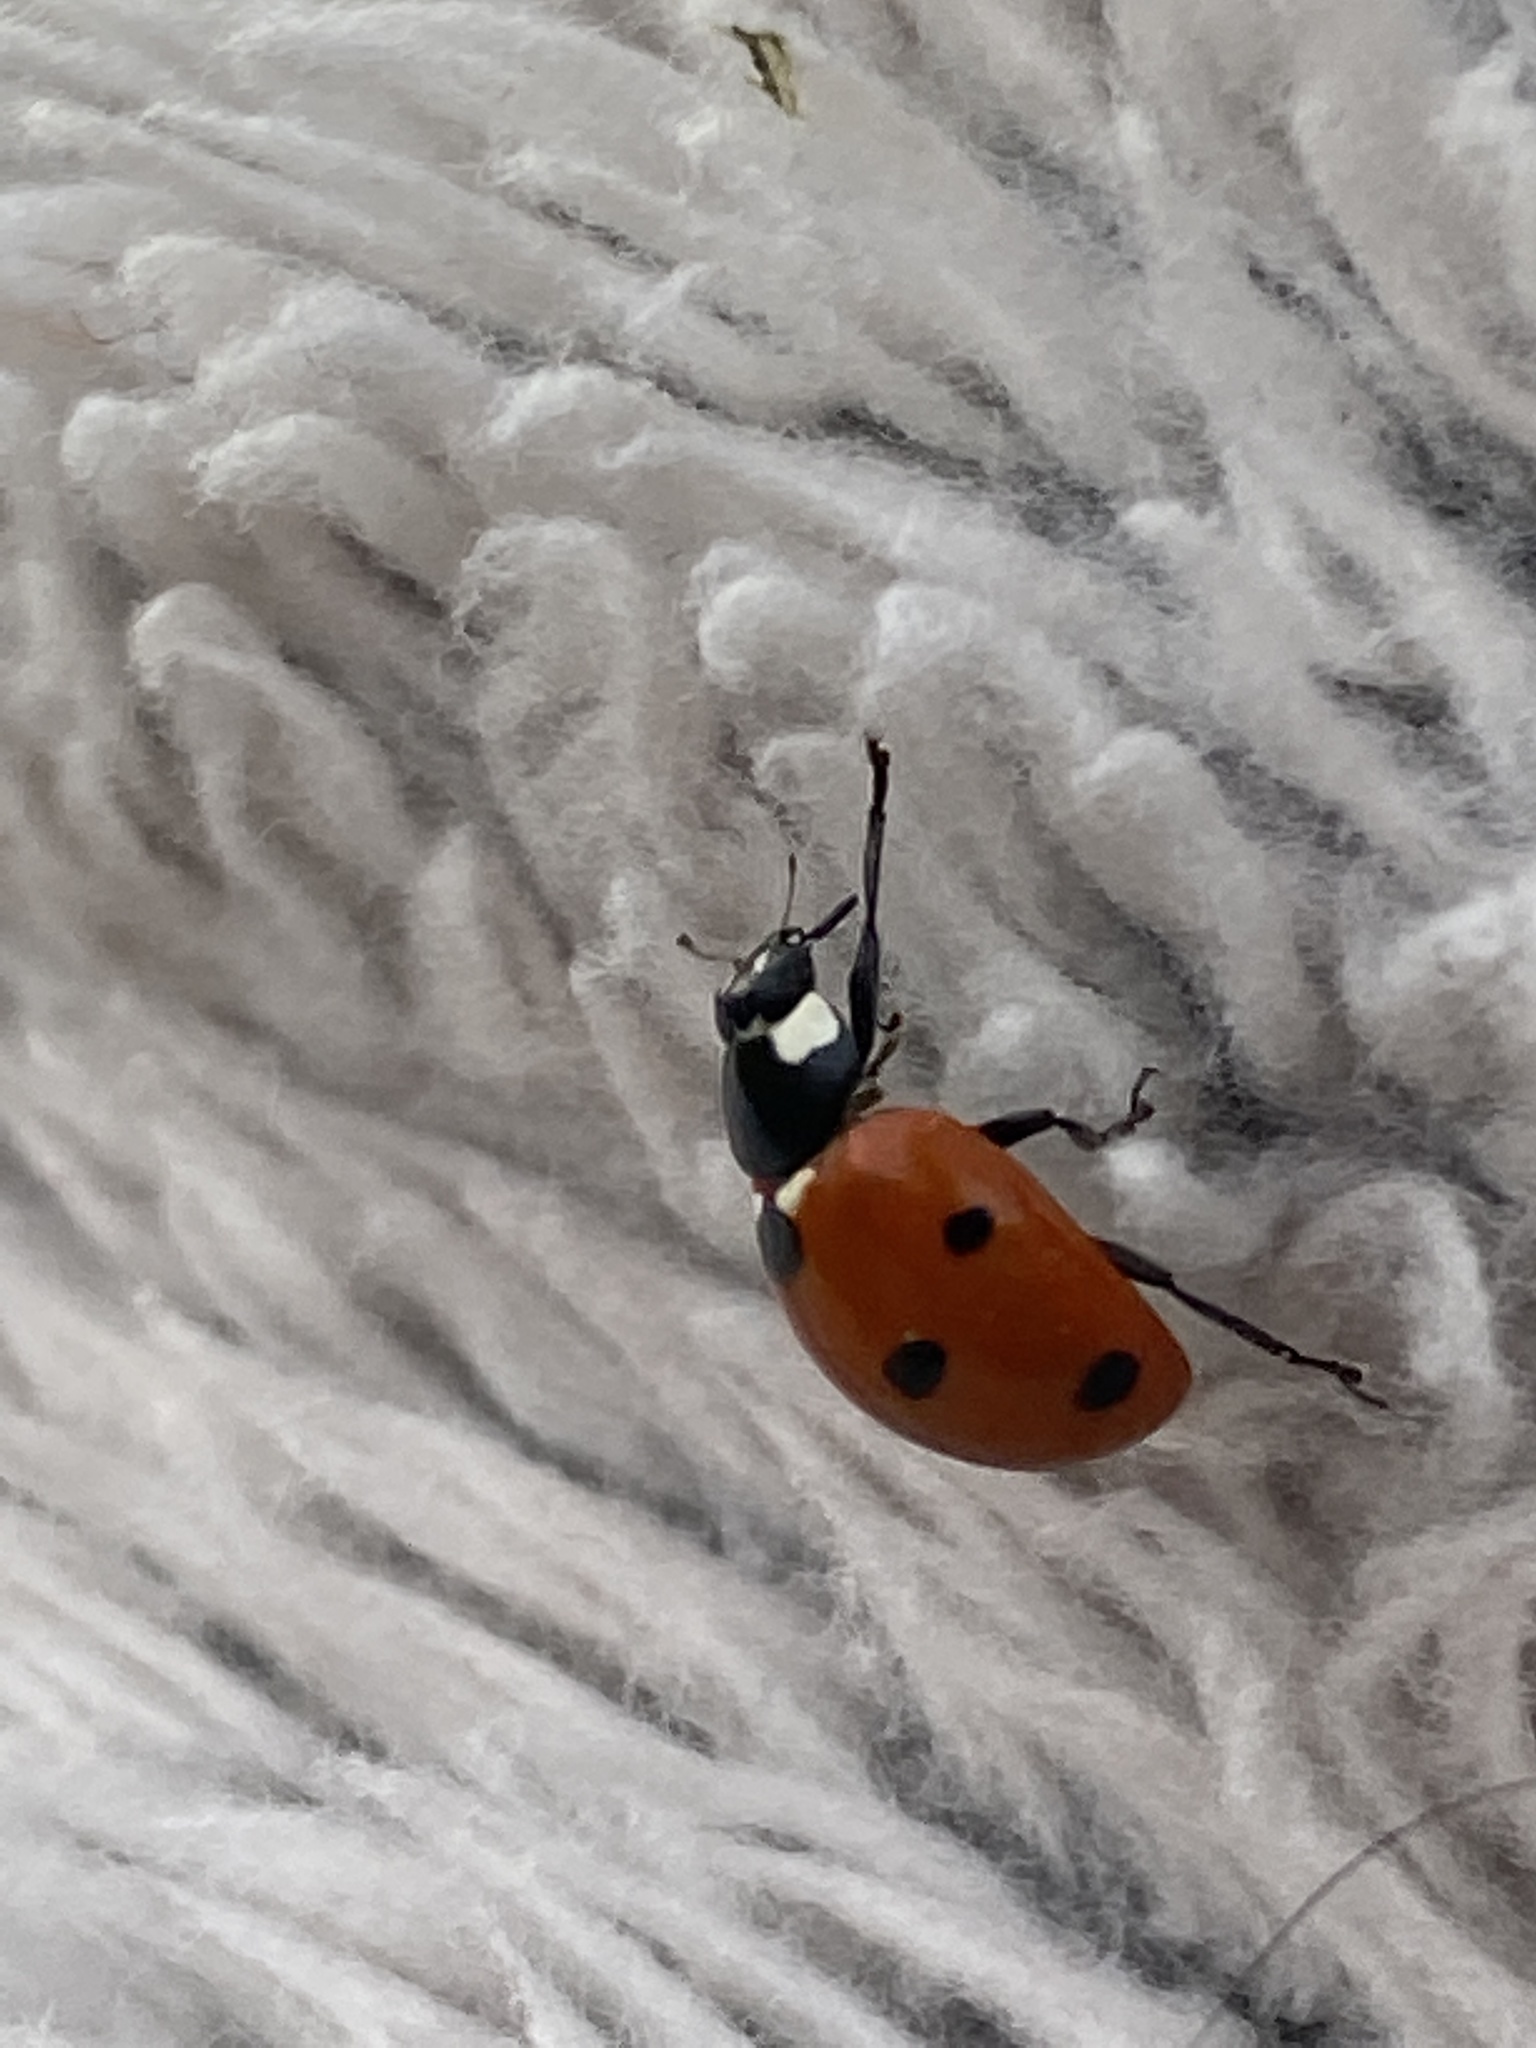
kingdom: Animalia
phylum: Arthropoda
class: Insecta
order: Coleoptera
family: Coccinellidae
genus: Coccinella
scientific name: Coccinella septempunctata
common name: Sevenspotted lady beetle
